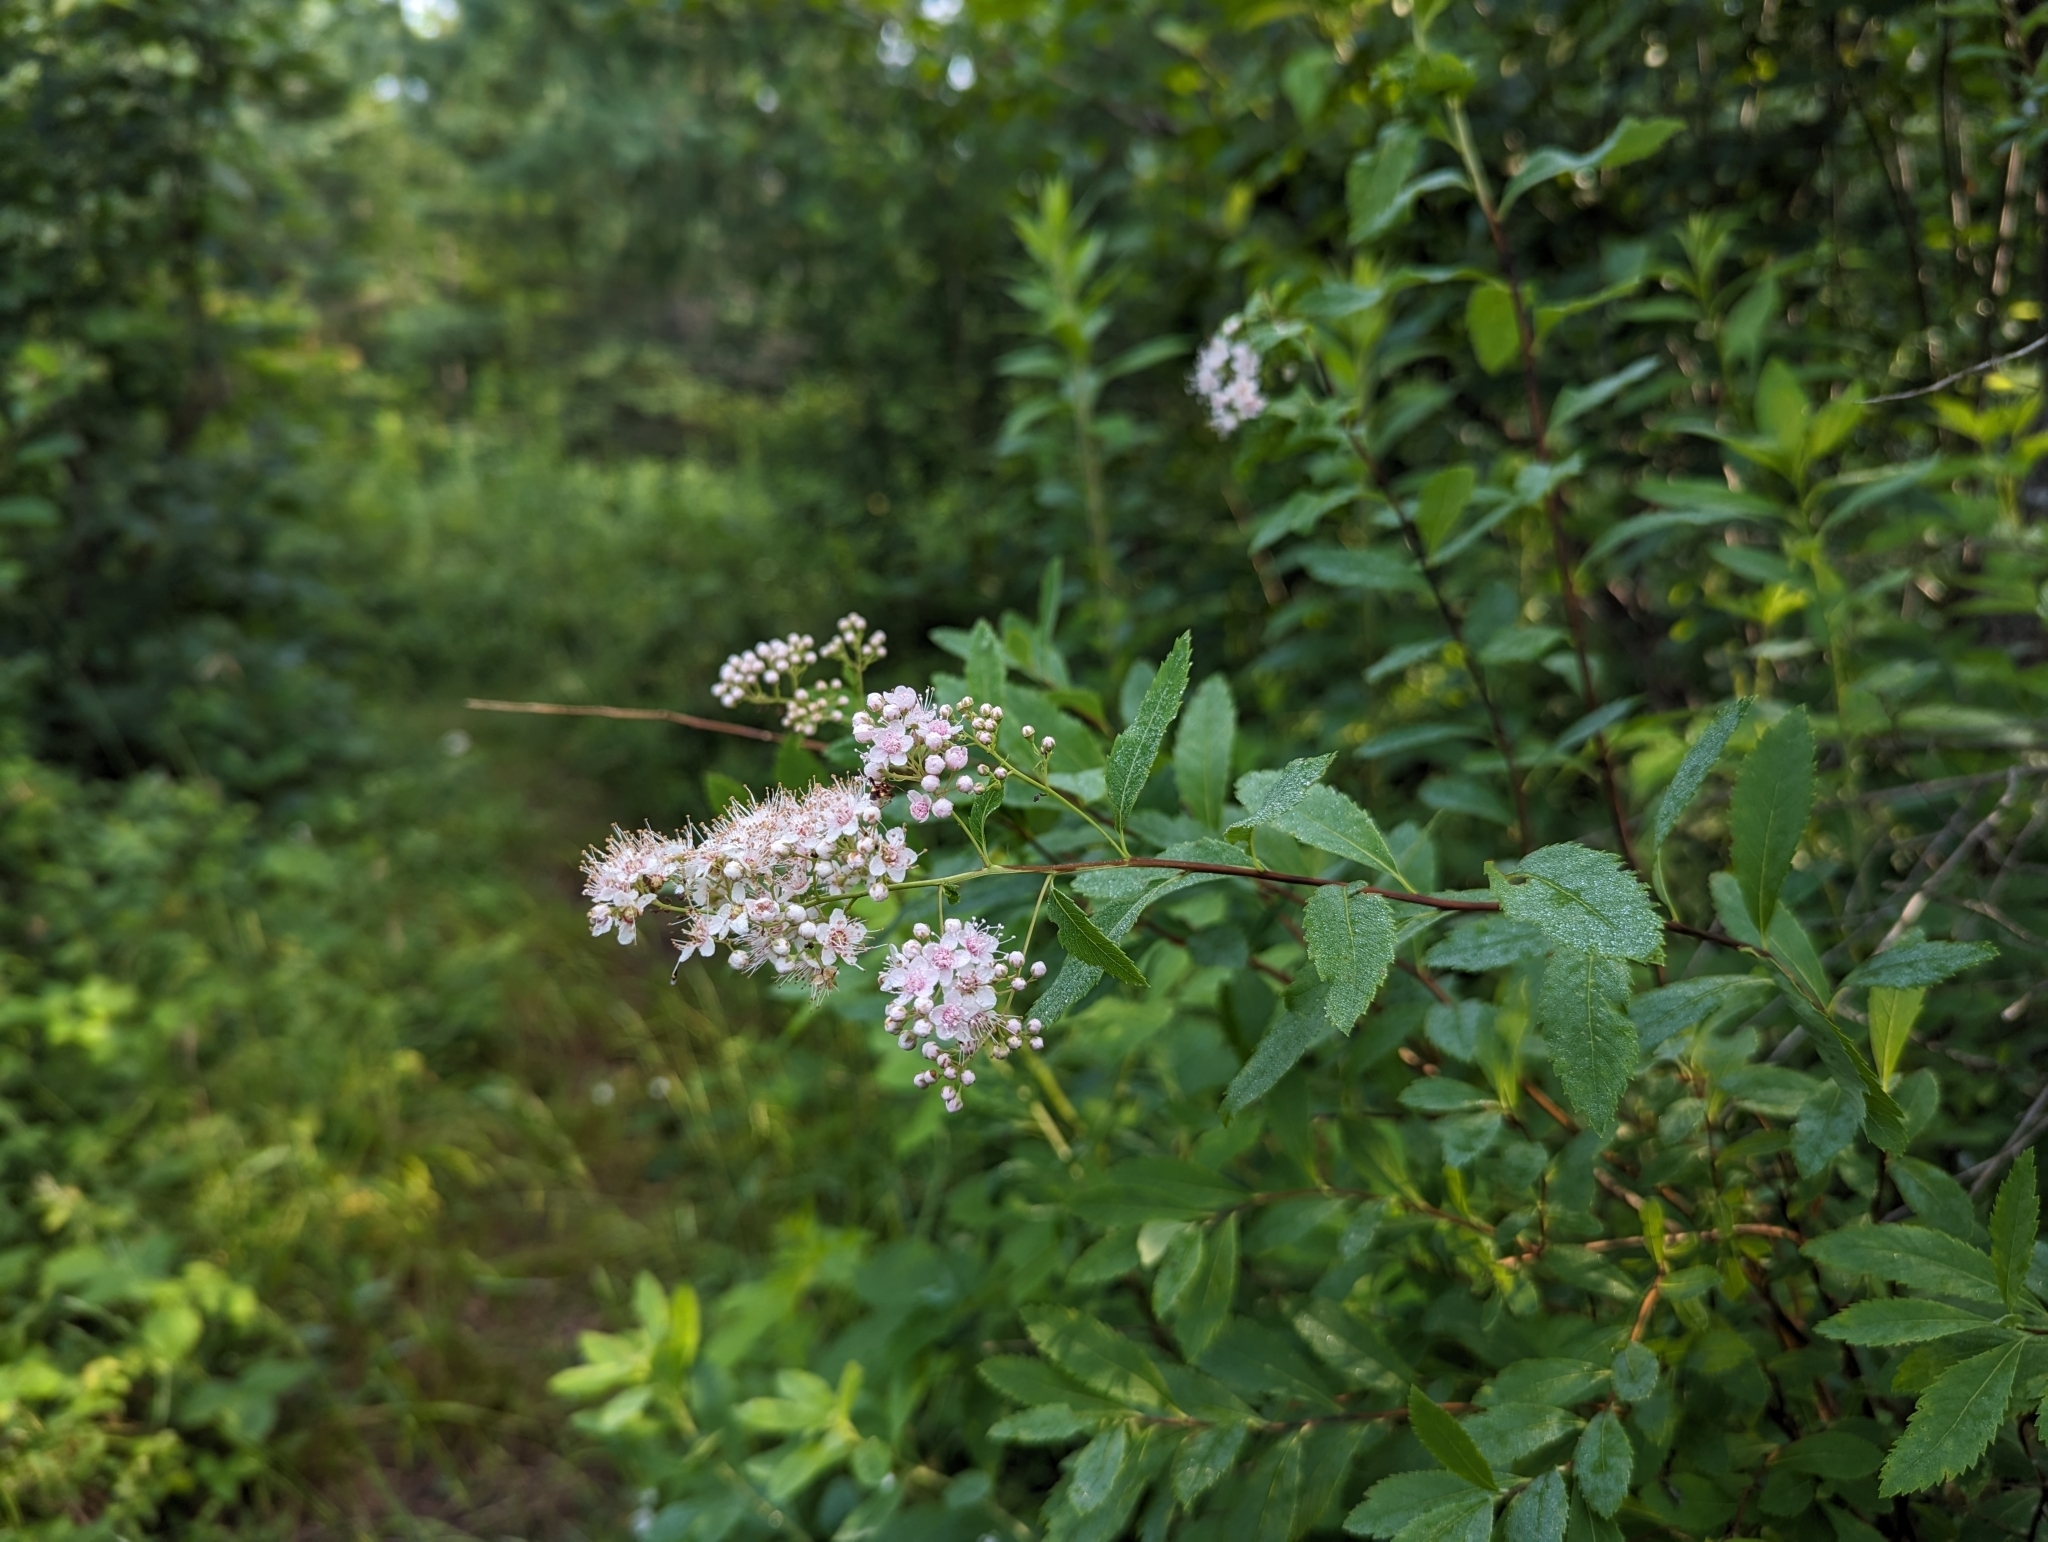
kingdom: Plantae
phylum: Tracheophyta
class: Magnoliopsida
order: Rosales
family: Rosaceae
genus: Spiraea
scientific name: Spiraea alba
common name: Pale bridewort
